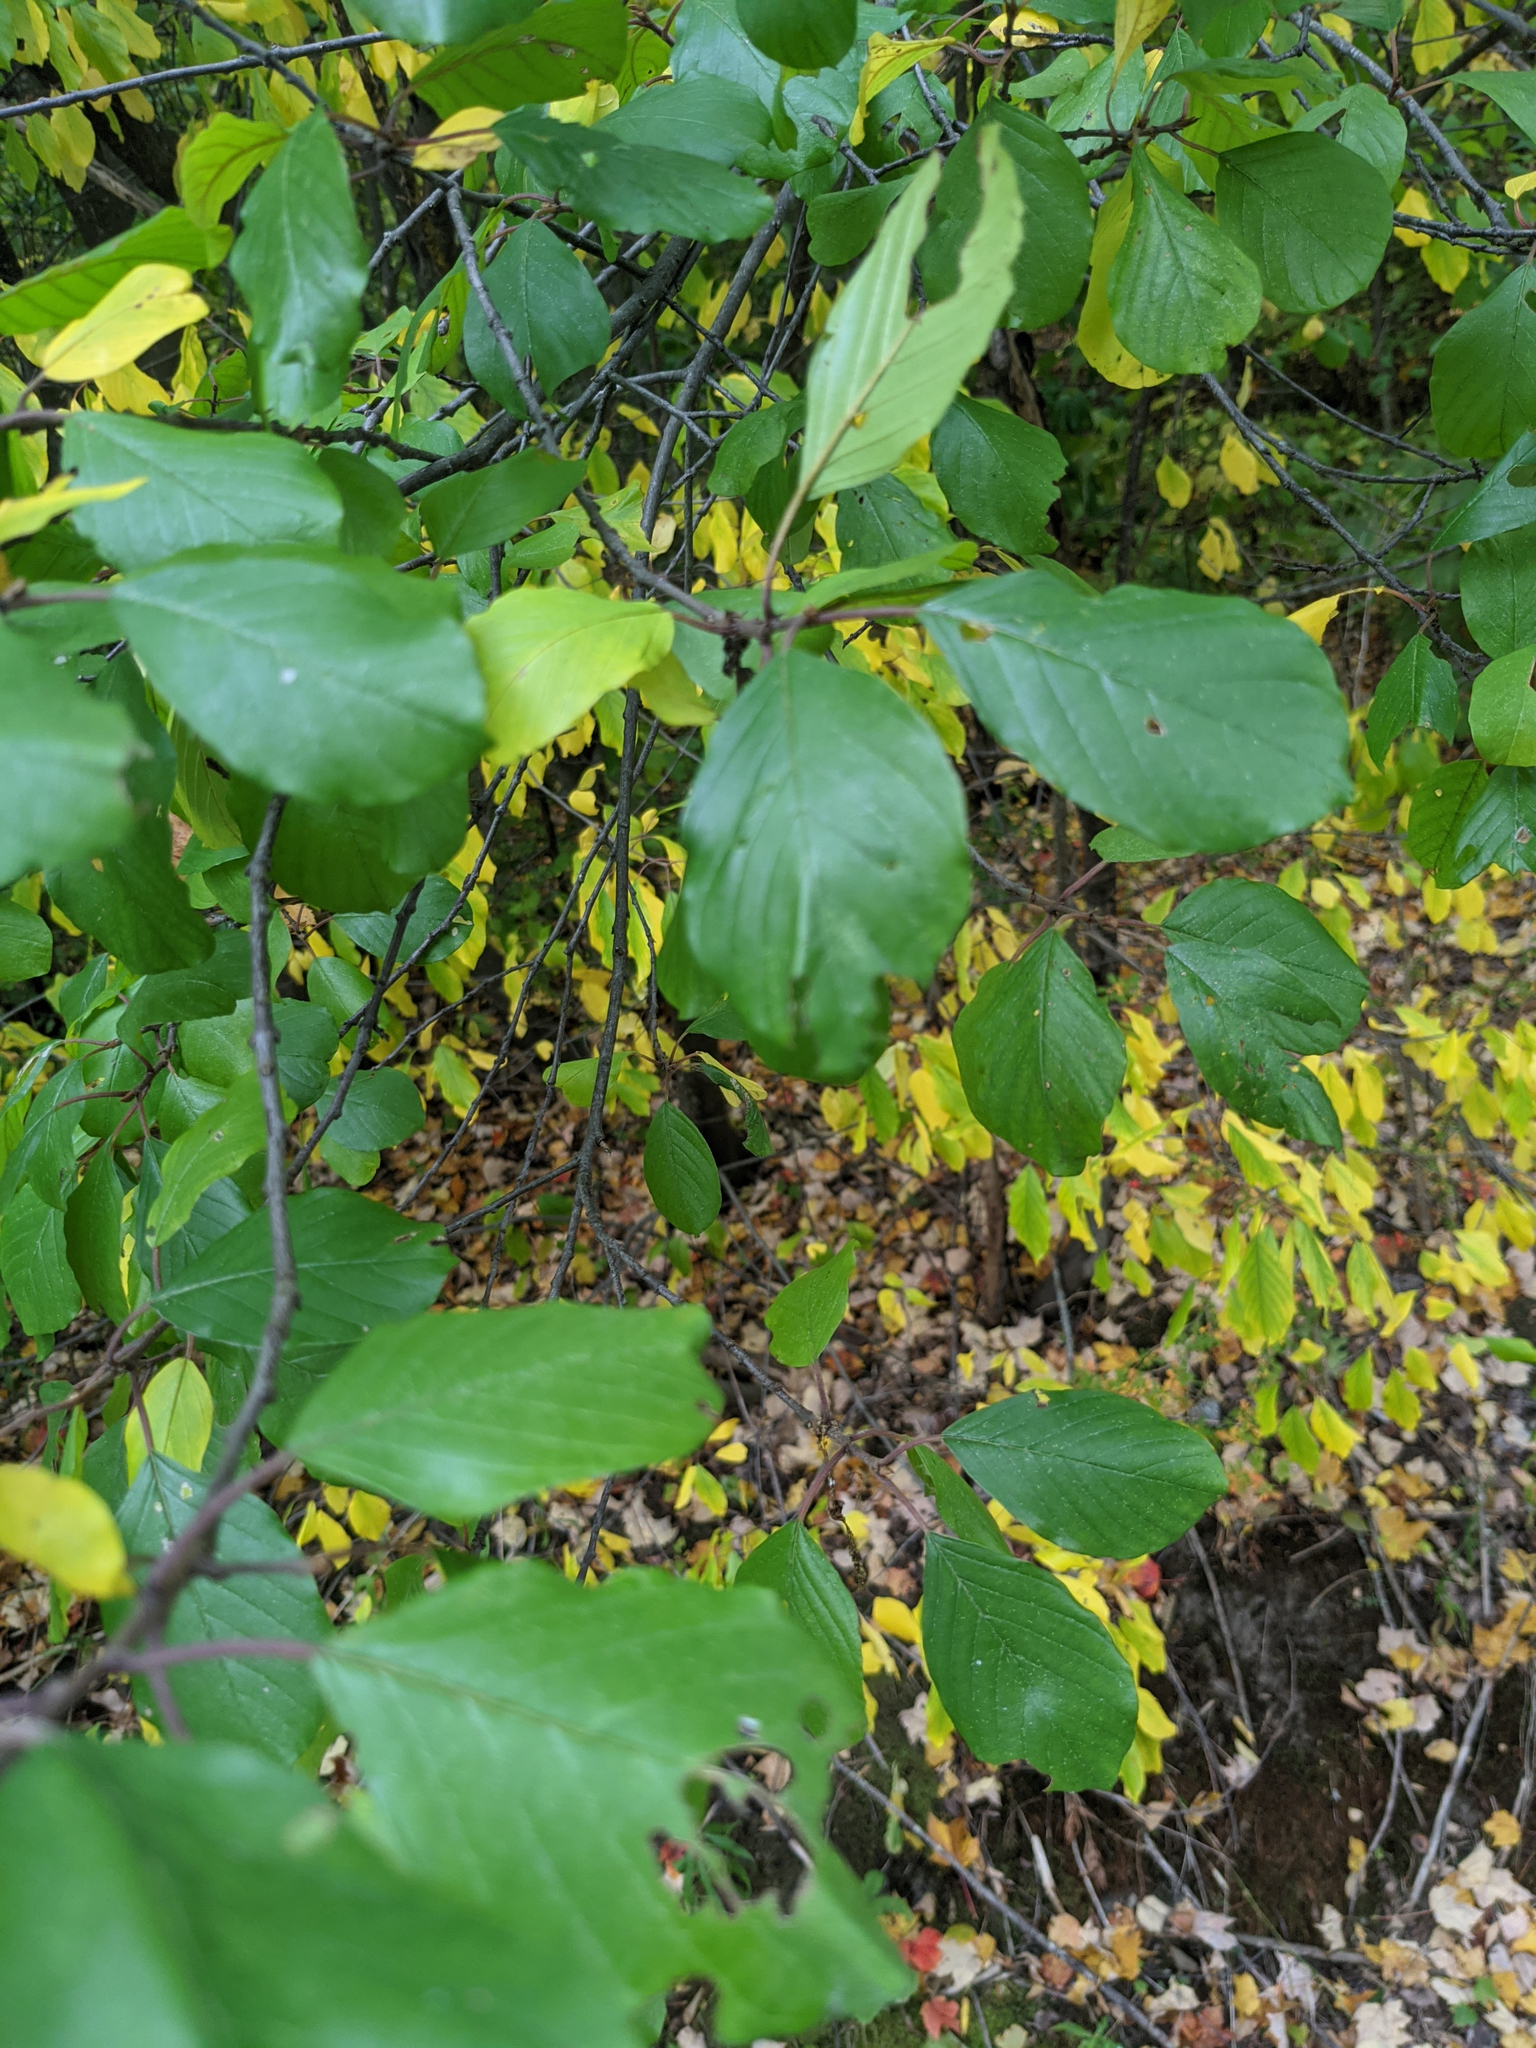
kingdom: Plantae
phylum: Tracheophyta
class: Magnoliopsida
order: Rosales
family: Rhamnaceae
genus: Frangula
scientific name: Frangula alnus
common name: Alder buckthorn
